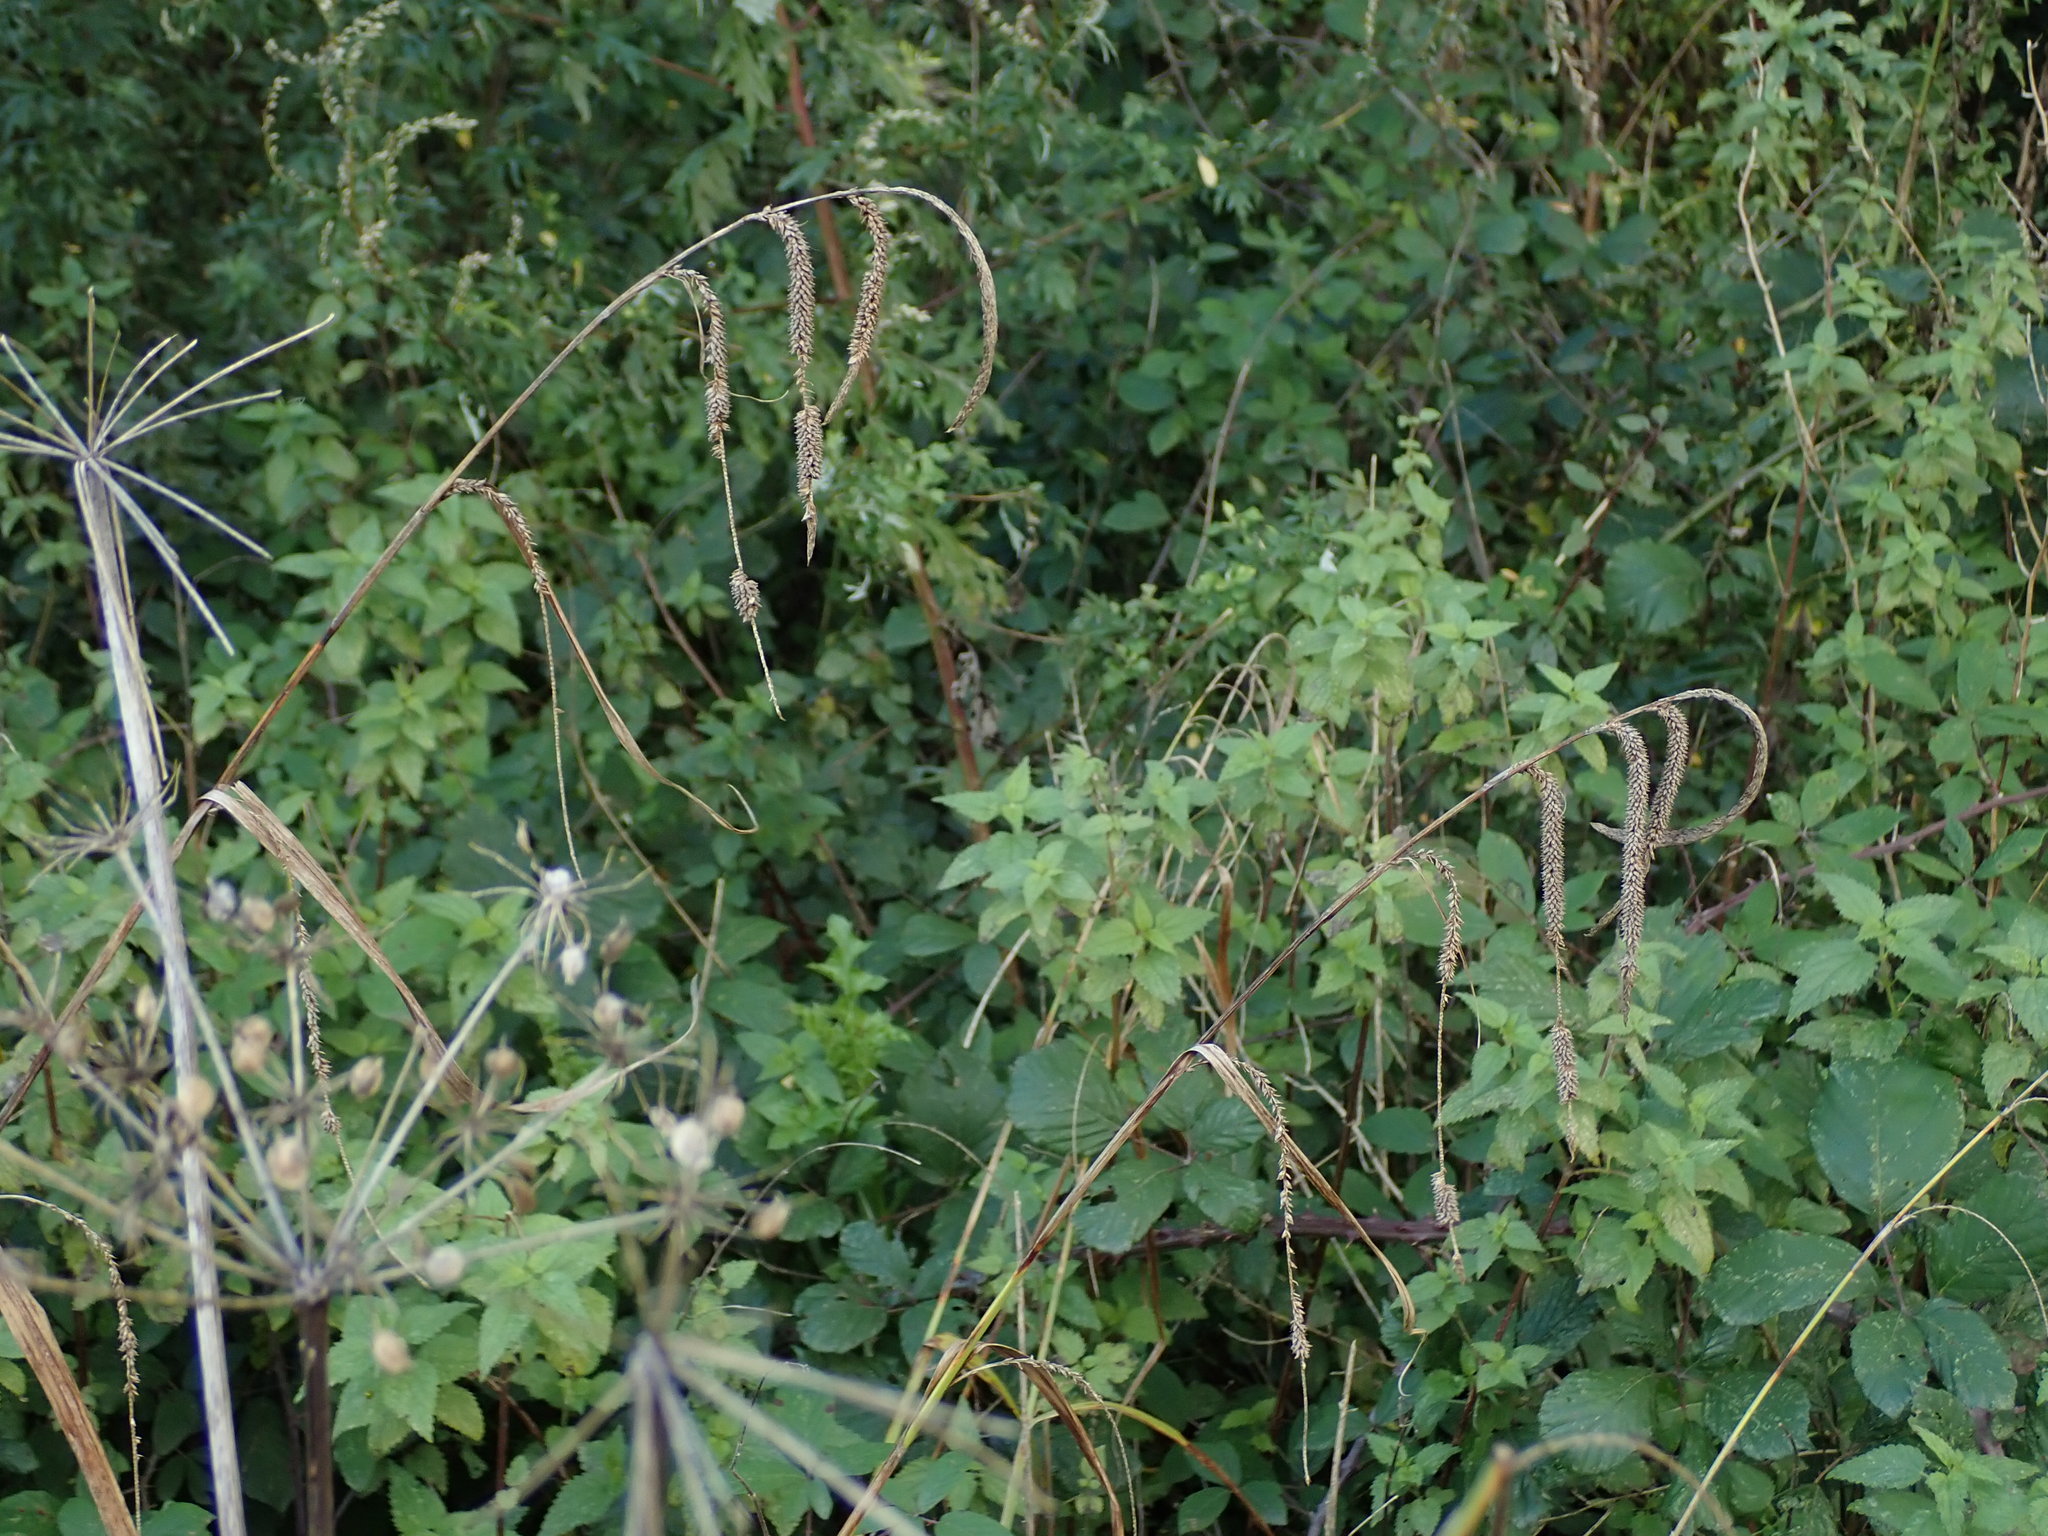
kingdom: Plantae
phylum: Tracheophyta
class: Liliopsida
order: Poales
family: Cyperaceae
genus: Carex
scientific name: Carex pendula
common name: Pendulous sedge
